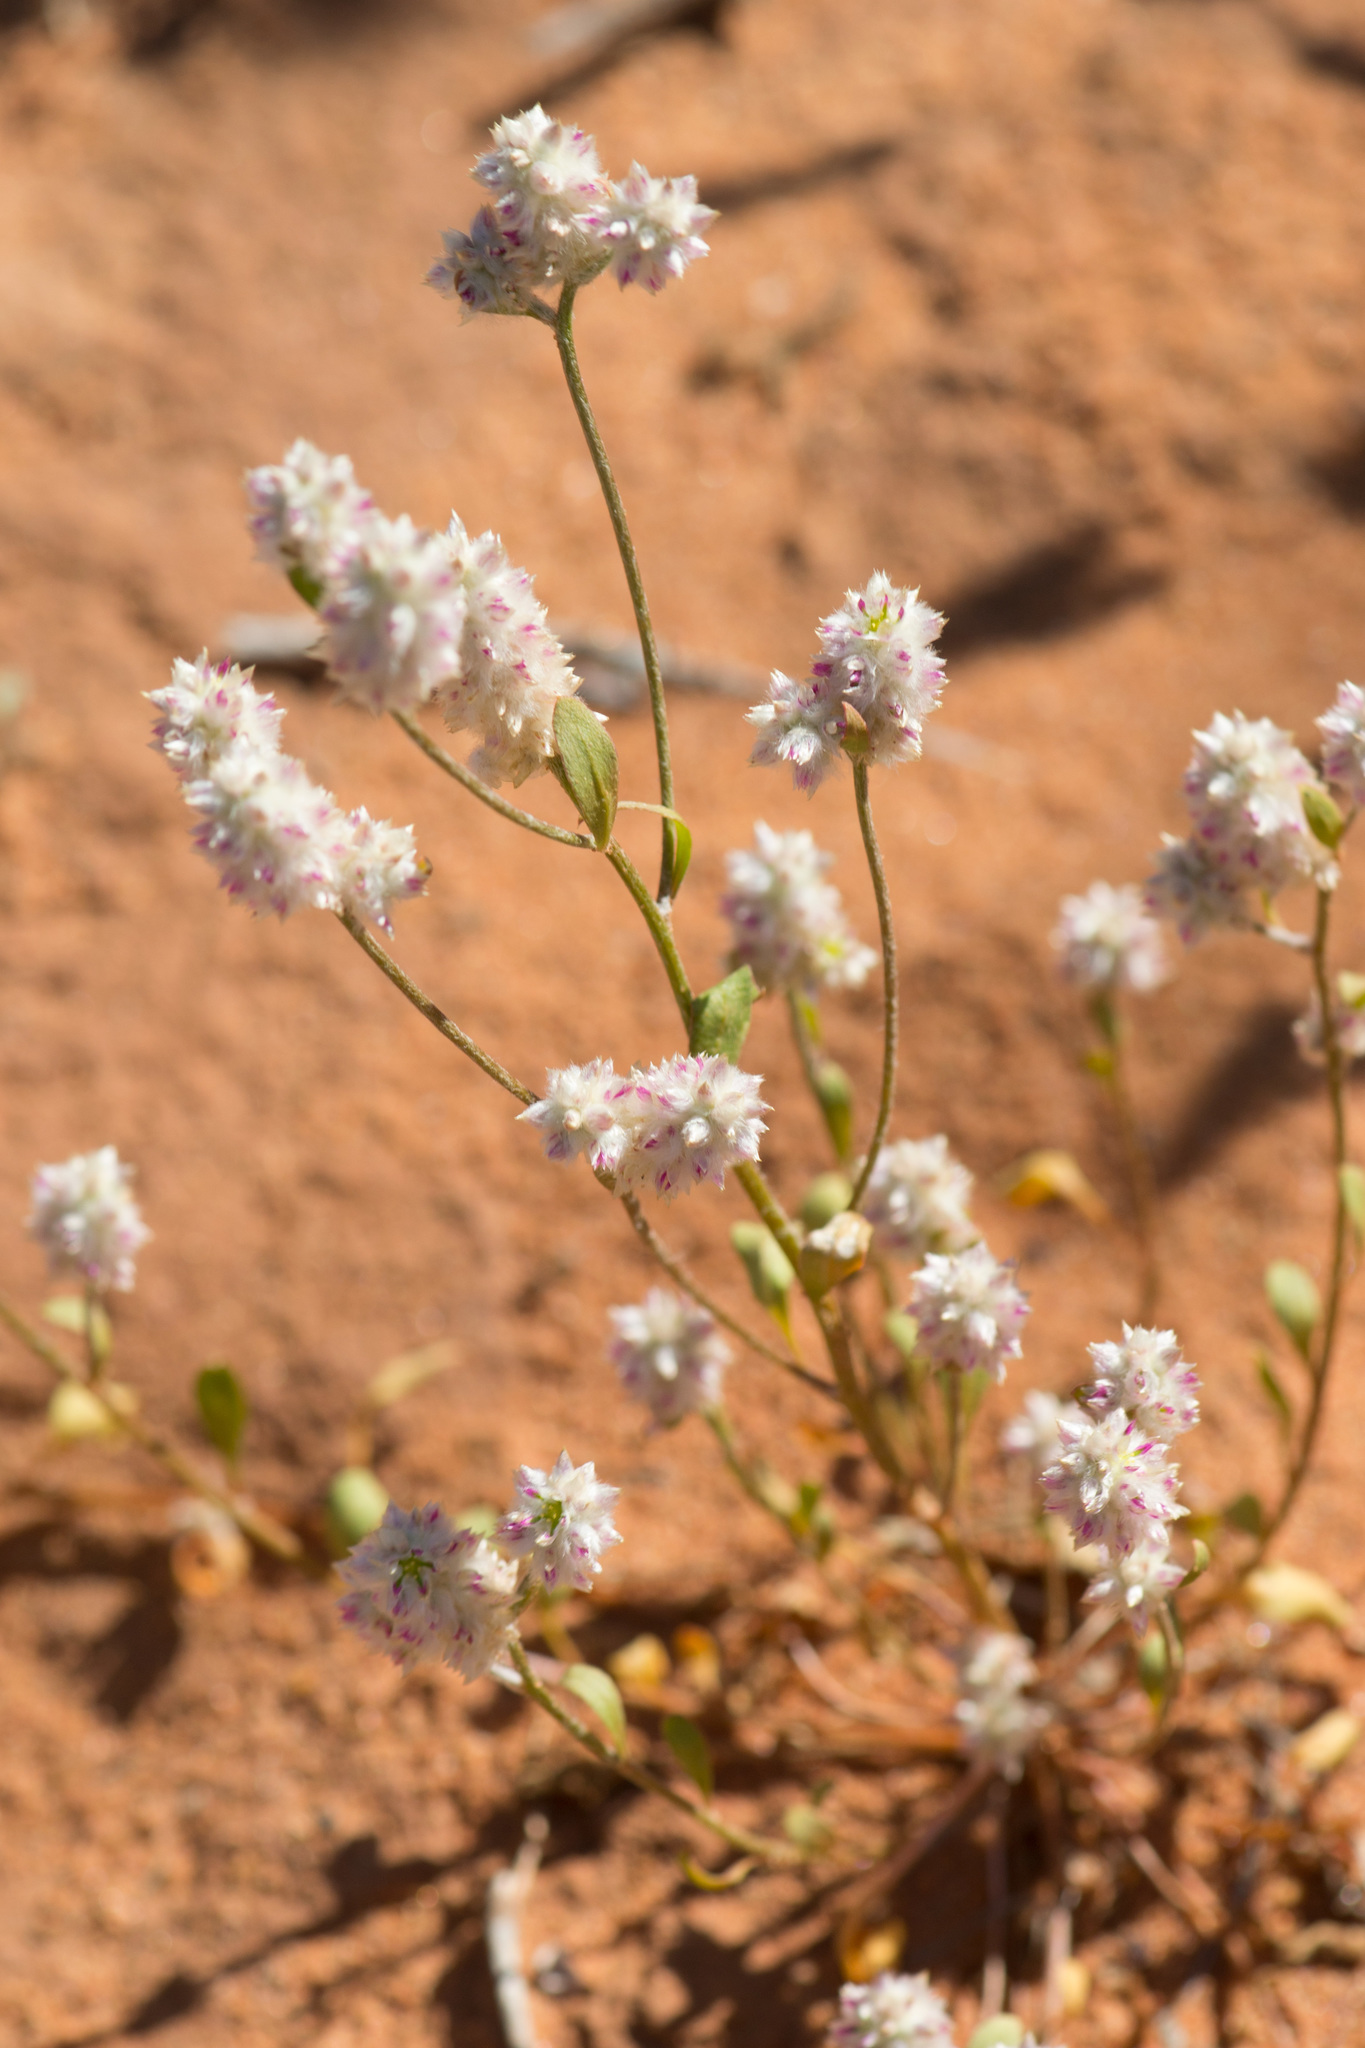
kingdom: Plantae
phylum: Tracheophyta
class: Magnoliopsida
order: Caryophyllales
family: Amaranthaceae
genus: Ptilotus
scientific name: Ptilotus chamaecladus
